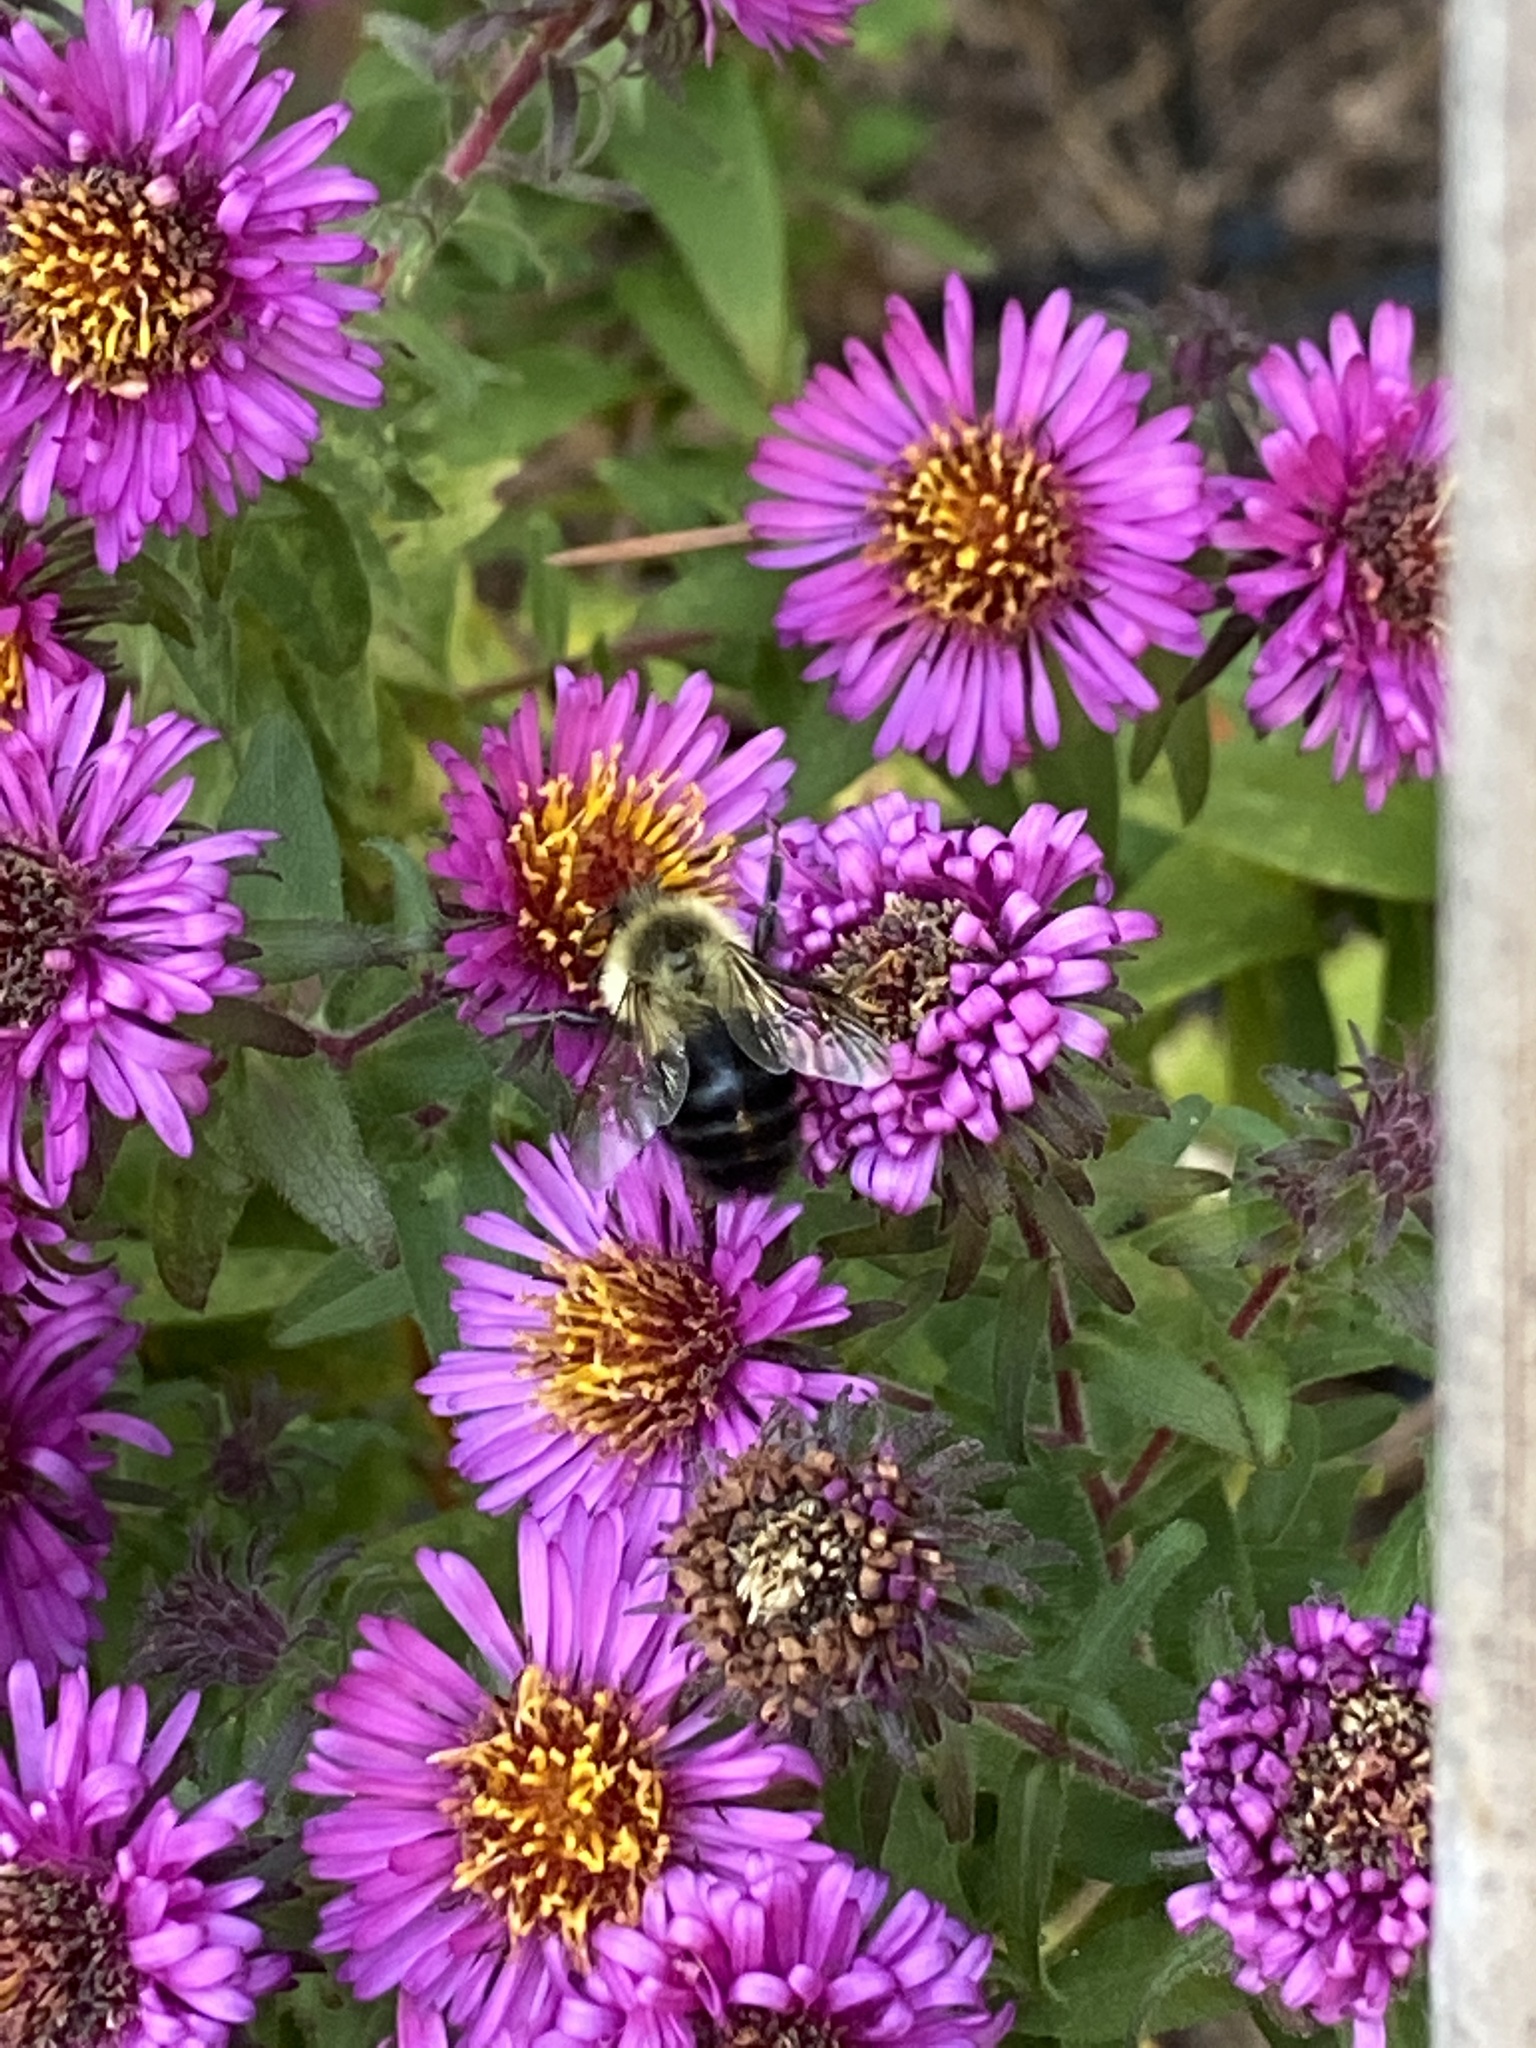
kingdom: Animalia
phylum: Arthropoda
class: Insecta
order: Hymenoptera
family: Apidae
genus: Bombus
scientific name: Bombus impatiens
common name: Common eastern bumble bee
